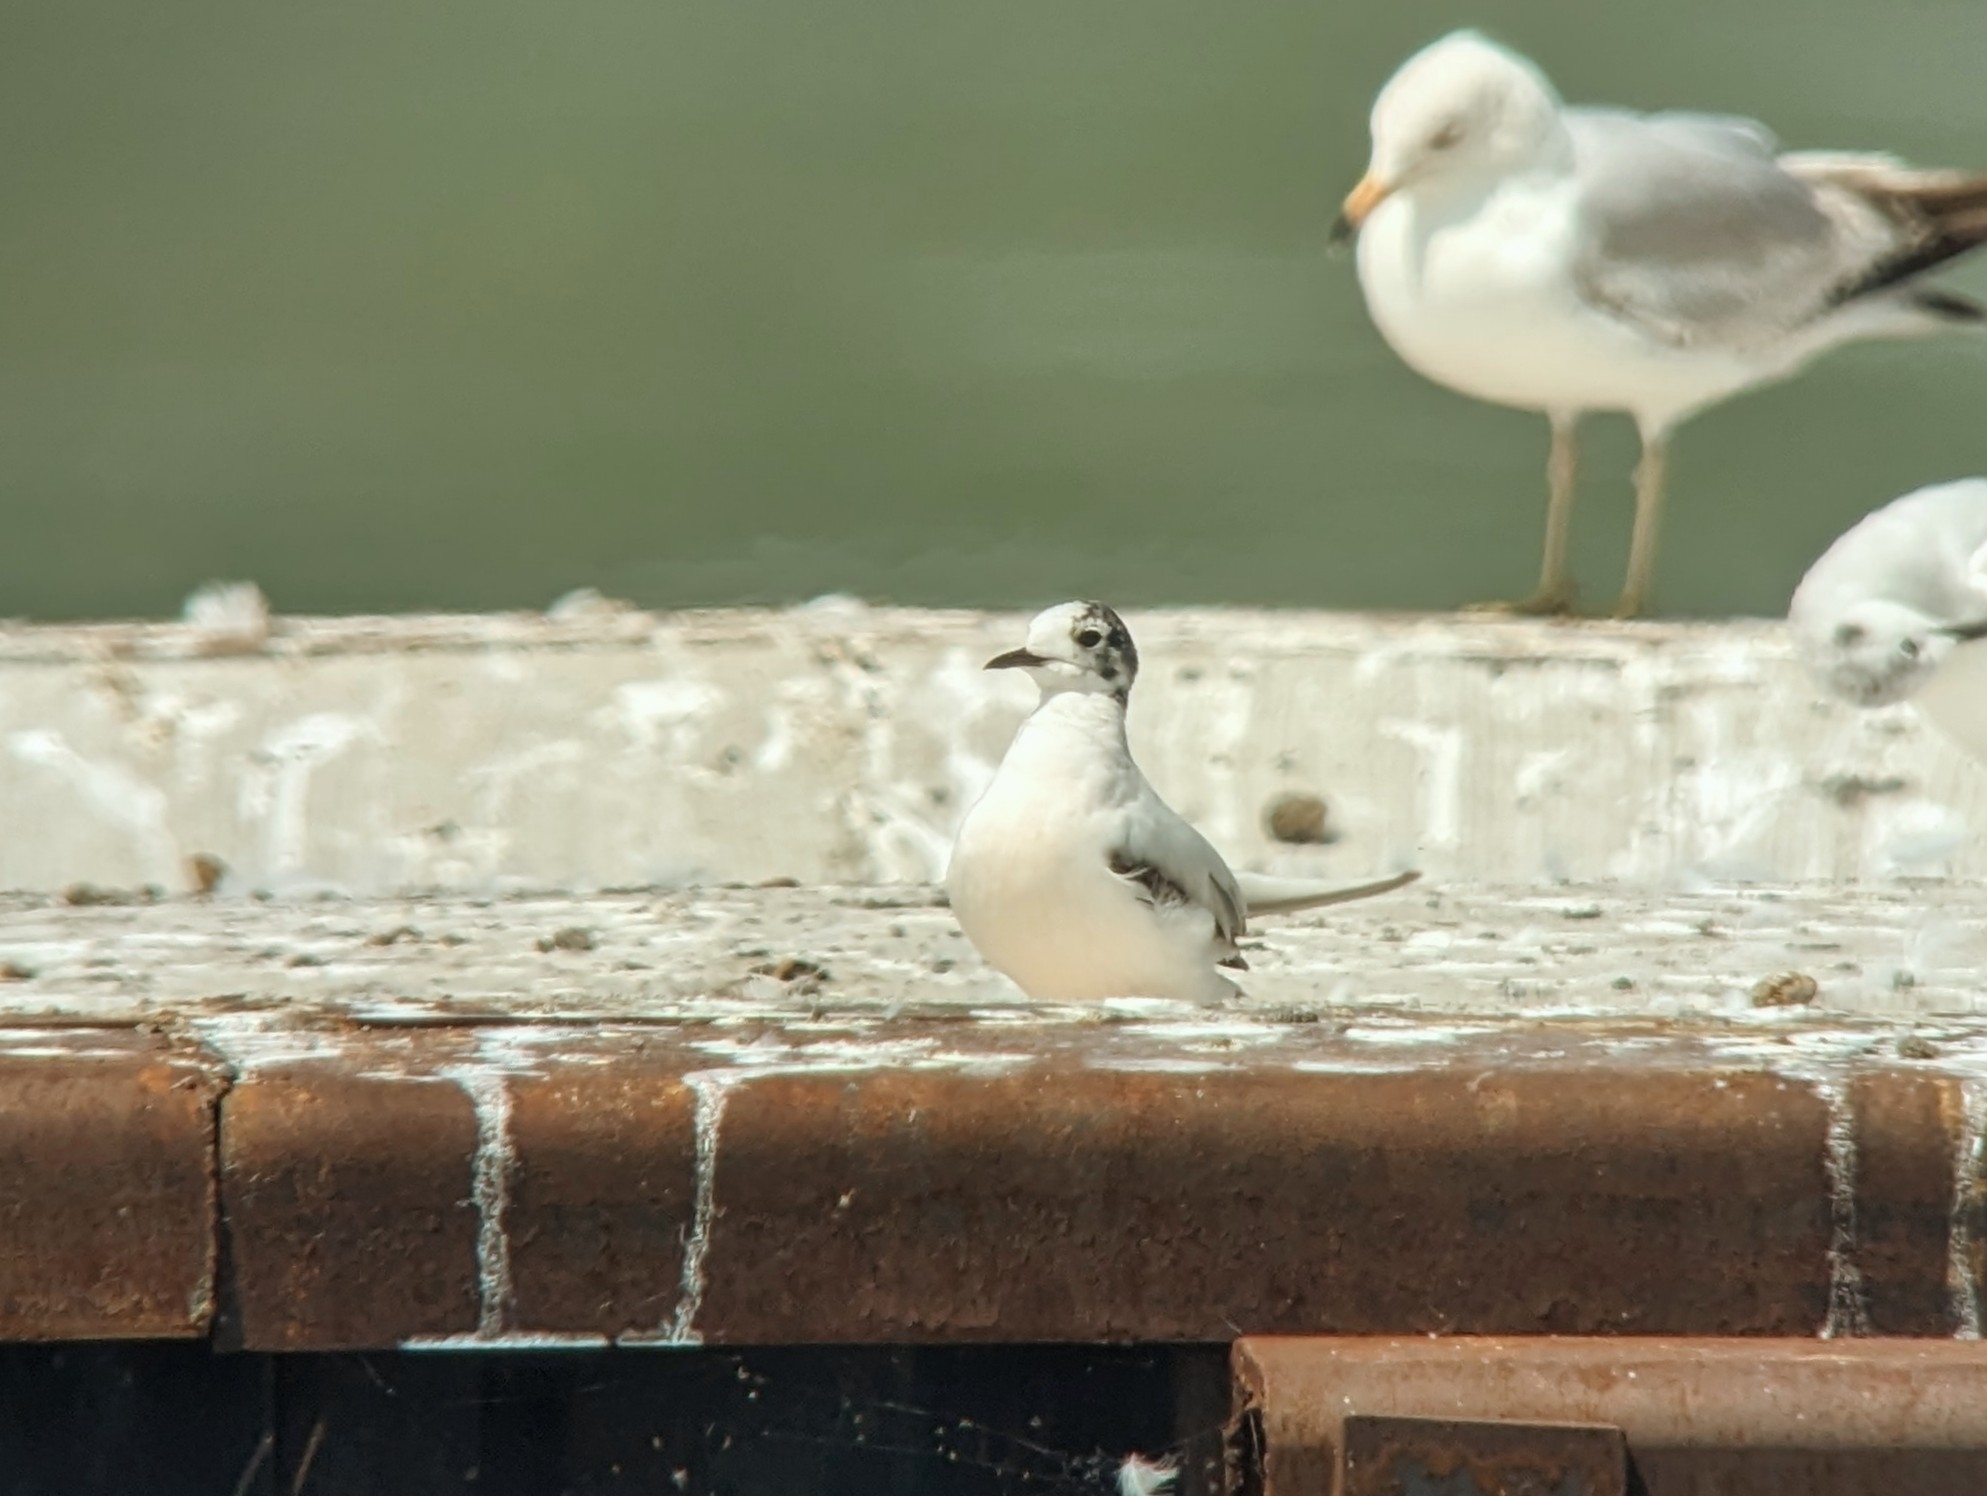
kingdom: Animalia
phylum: Chordata
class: Aves
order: Charadriiformes
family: Laridae
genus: Hydrocoloeus
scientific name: Hydrocoloeus minutus
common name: Little gull
